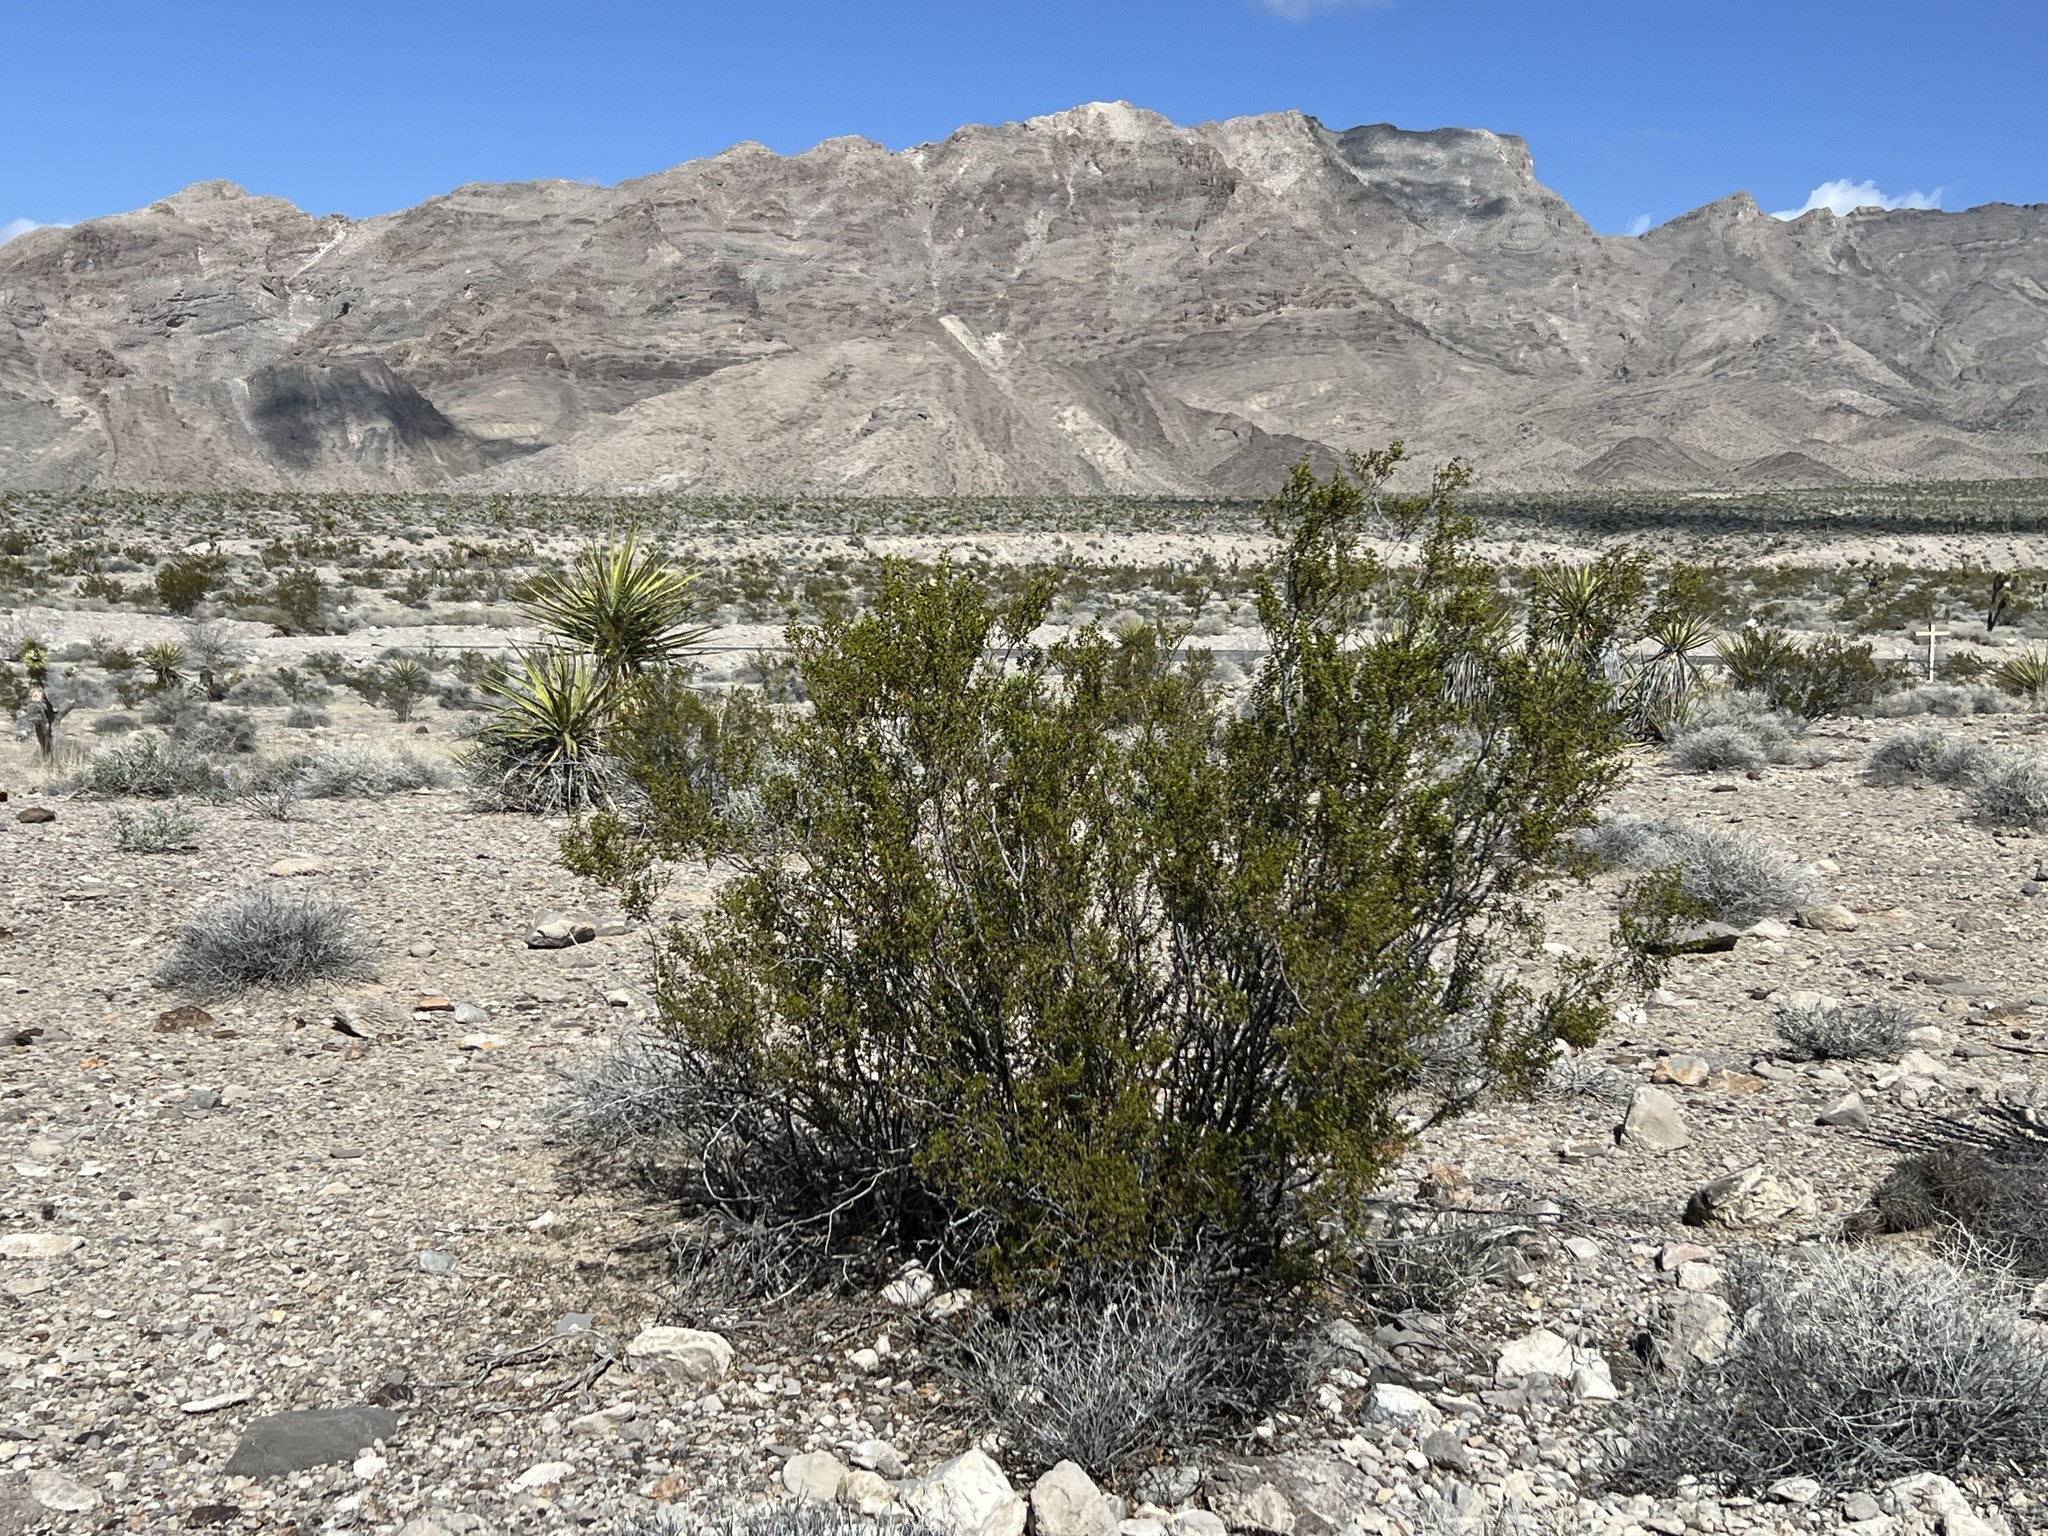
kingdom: Plantae
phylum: Tracheophyta
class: Magnoliopsida
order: Zygophyllales
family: Zygophyllaceae
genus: Larrea
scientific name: Larrea tridentata
